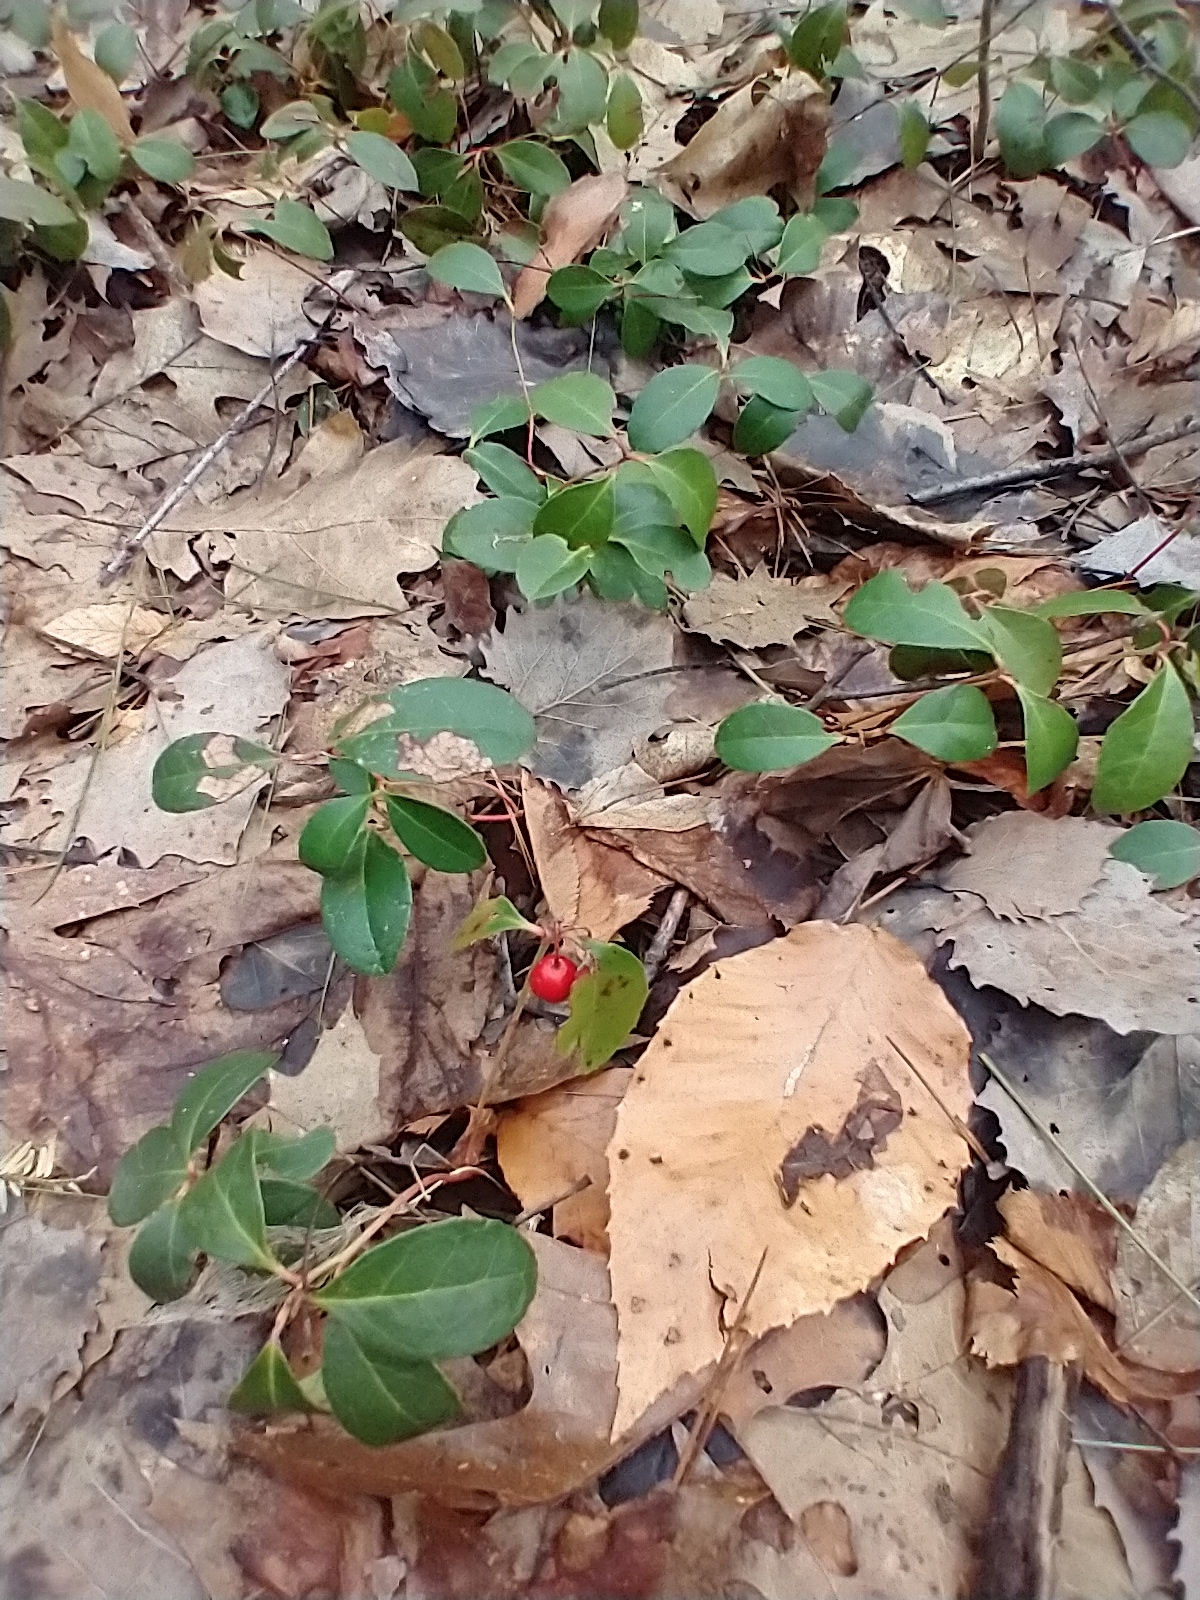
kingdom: Plantae
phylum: Tracheophyta
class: Magnoliopsida
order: Ericales
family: Ericaceae
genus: Gaultheria
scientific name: Gaultheria procumbens
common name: Checkerberry
